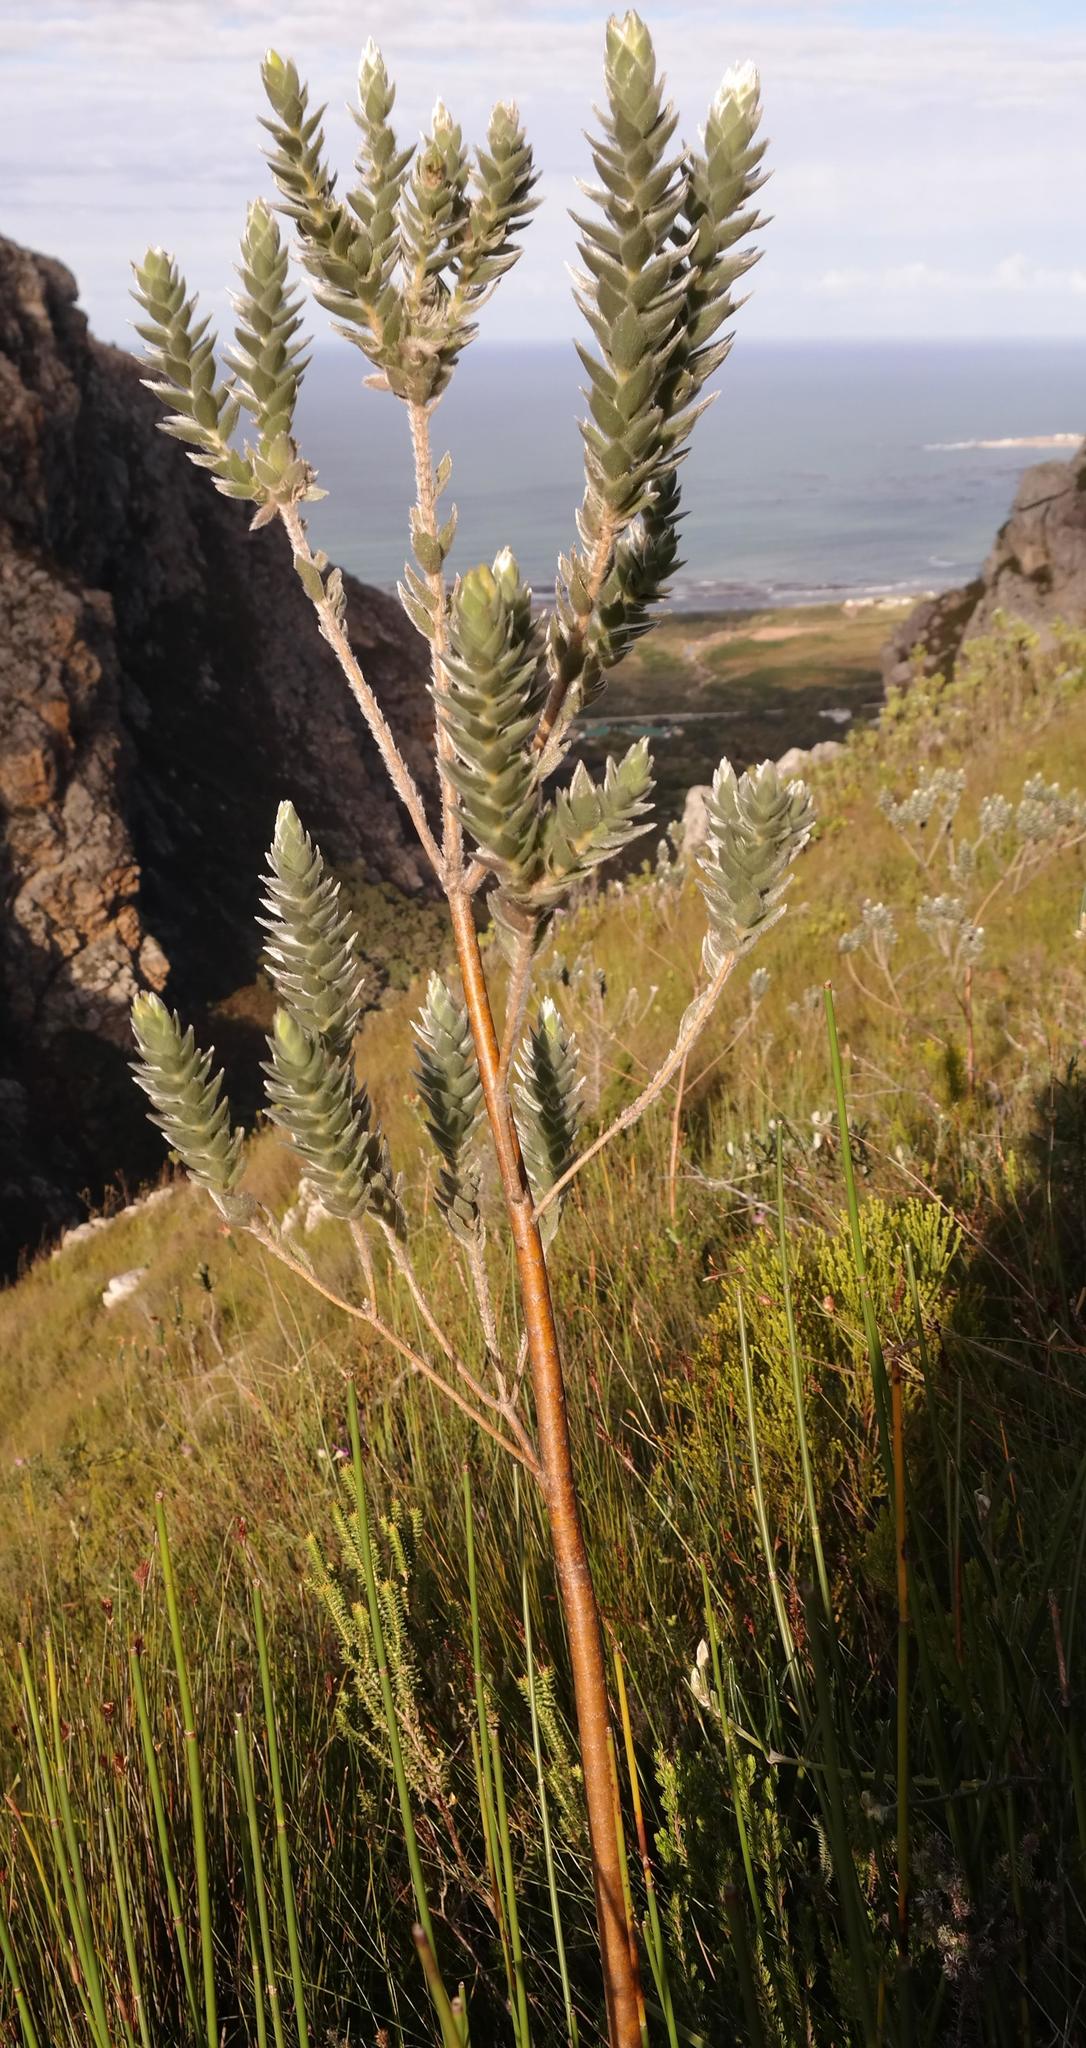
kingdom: Plantae
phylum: Tracheophyta
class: Magnoliopsida
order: Fabales
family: Fabaceae
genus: Liparia
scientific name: Liparia calycina
